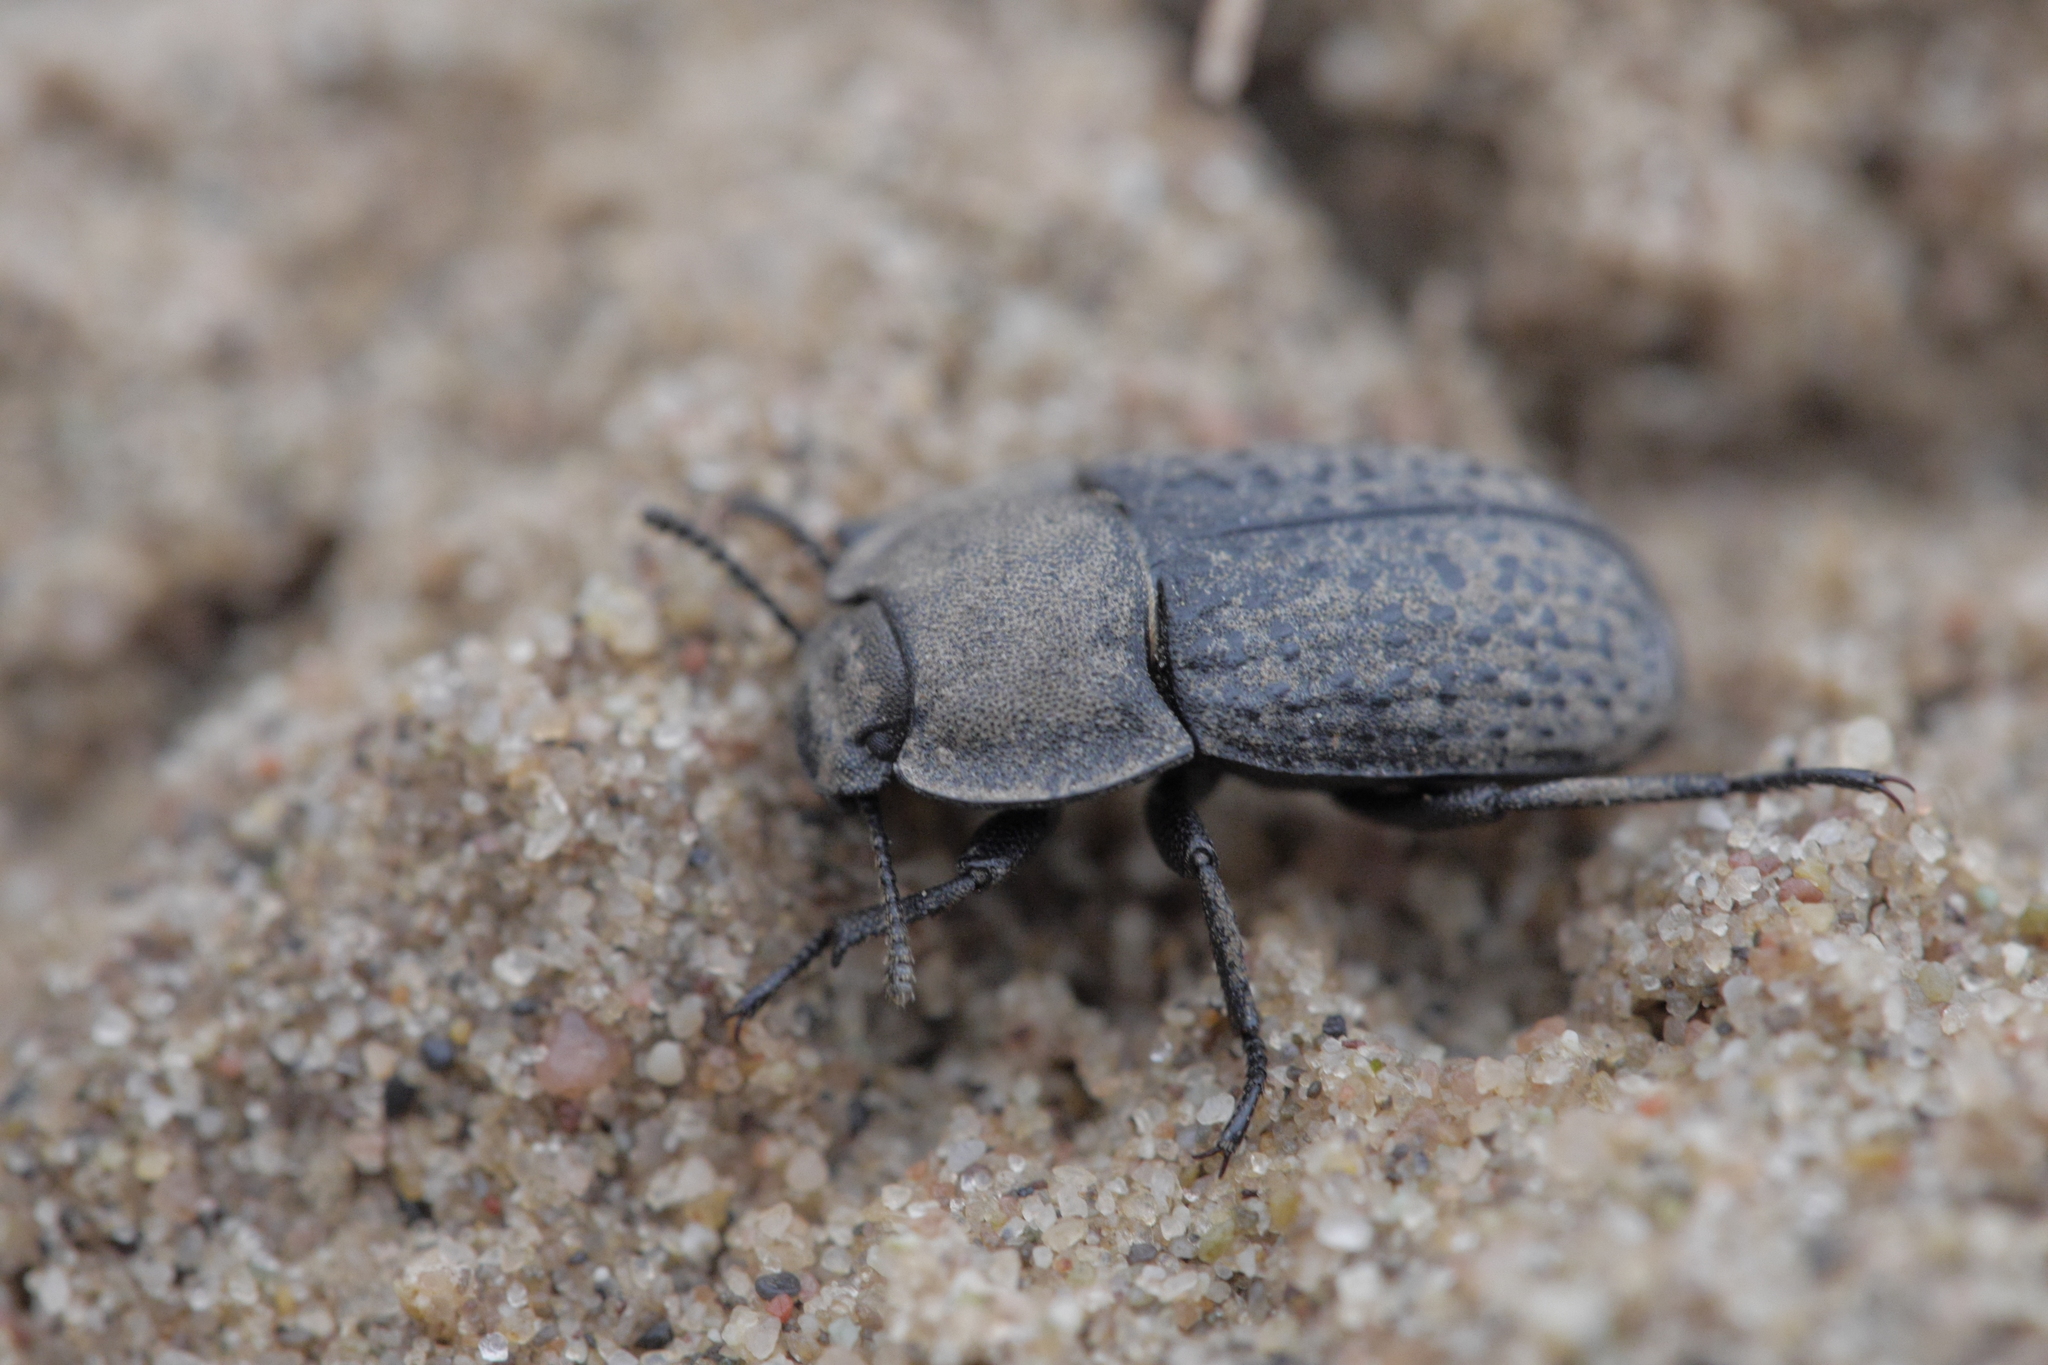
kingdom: Animalia
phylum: Arthropoda
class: Insecta
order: Coleoptera
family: Tenebrionidae
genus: Opatrum
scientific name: Opatrum sabulosum
